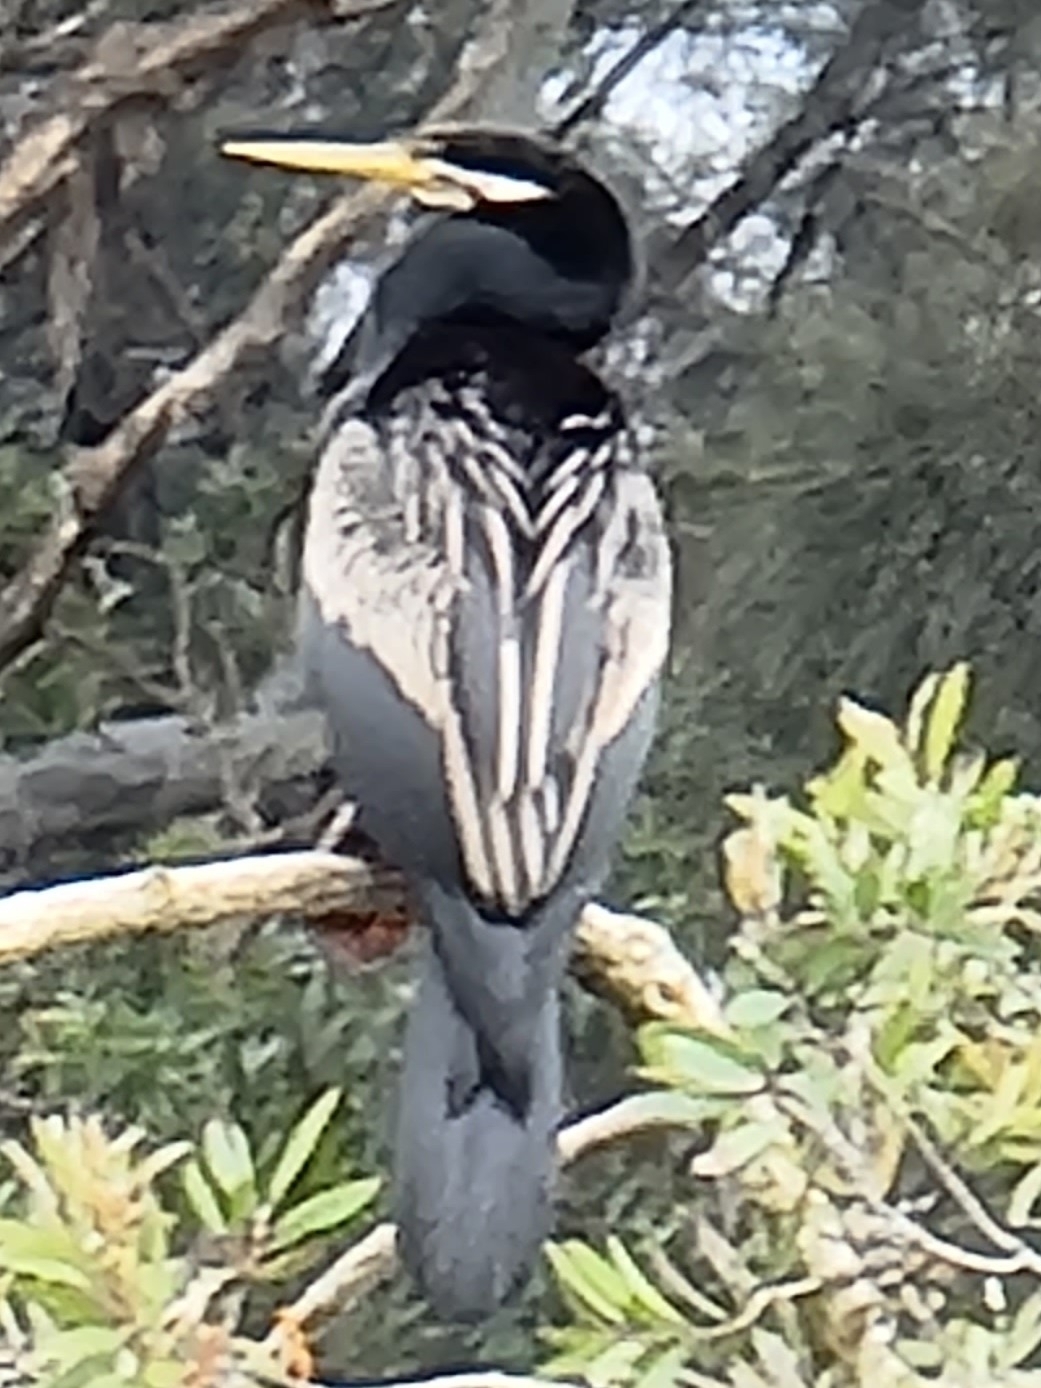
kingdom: Animalia
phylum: Chordata
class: Aves
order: Suliformes
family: Anhingidae
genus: Anhinga
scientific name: Anhinga novaehollandiae
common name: Australasian darter
